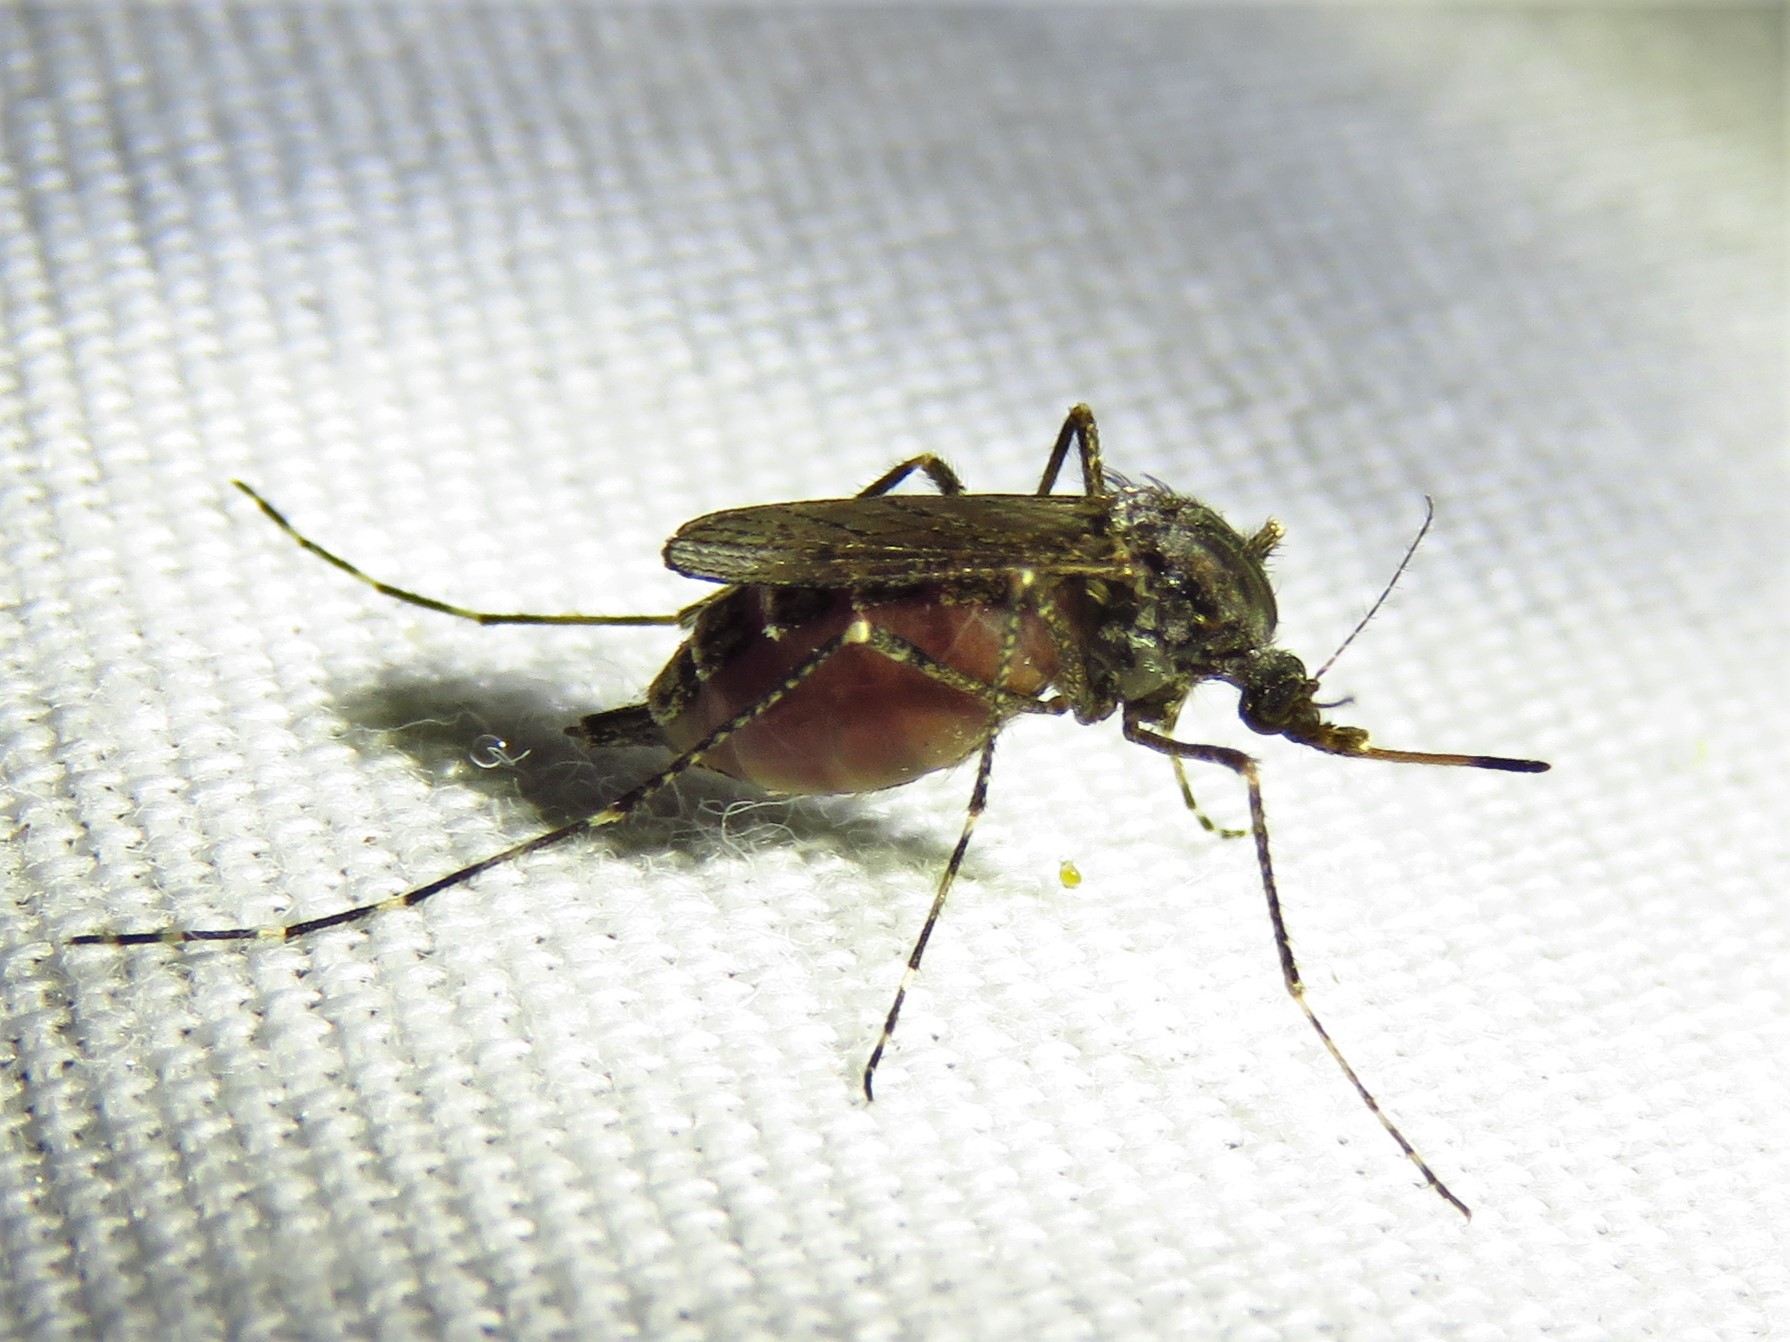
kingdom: Animalia
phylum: Arthropoda
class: Insecta
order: Diptera
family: Culicidae
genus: Psorophora
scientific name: Psorophora columbiae
